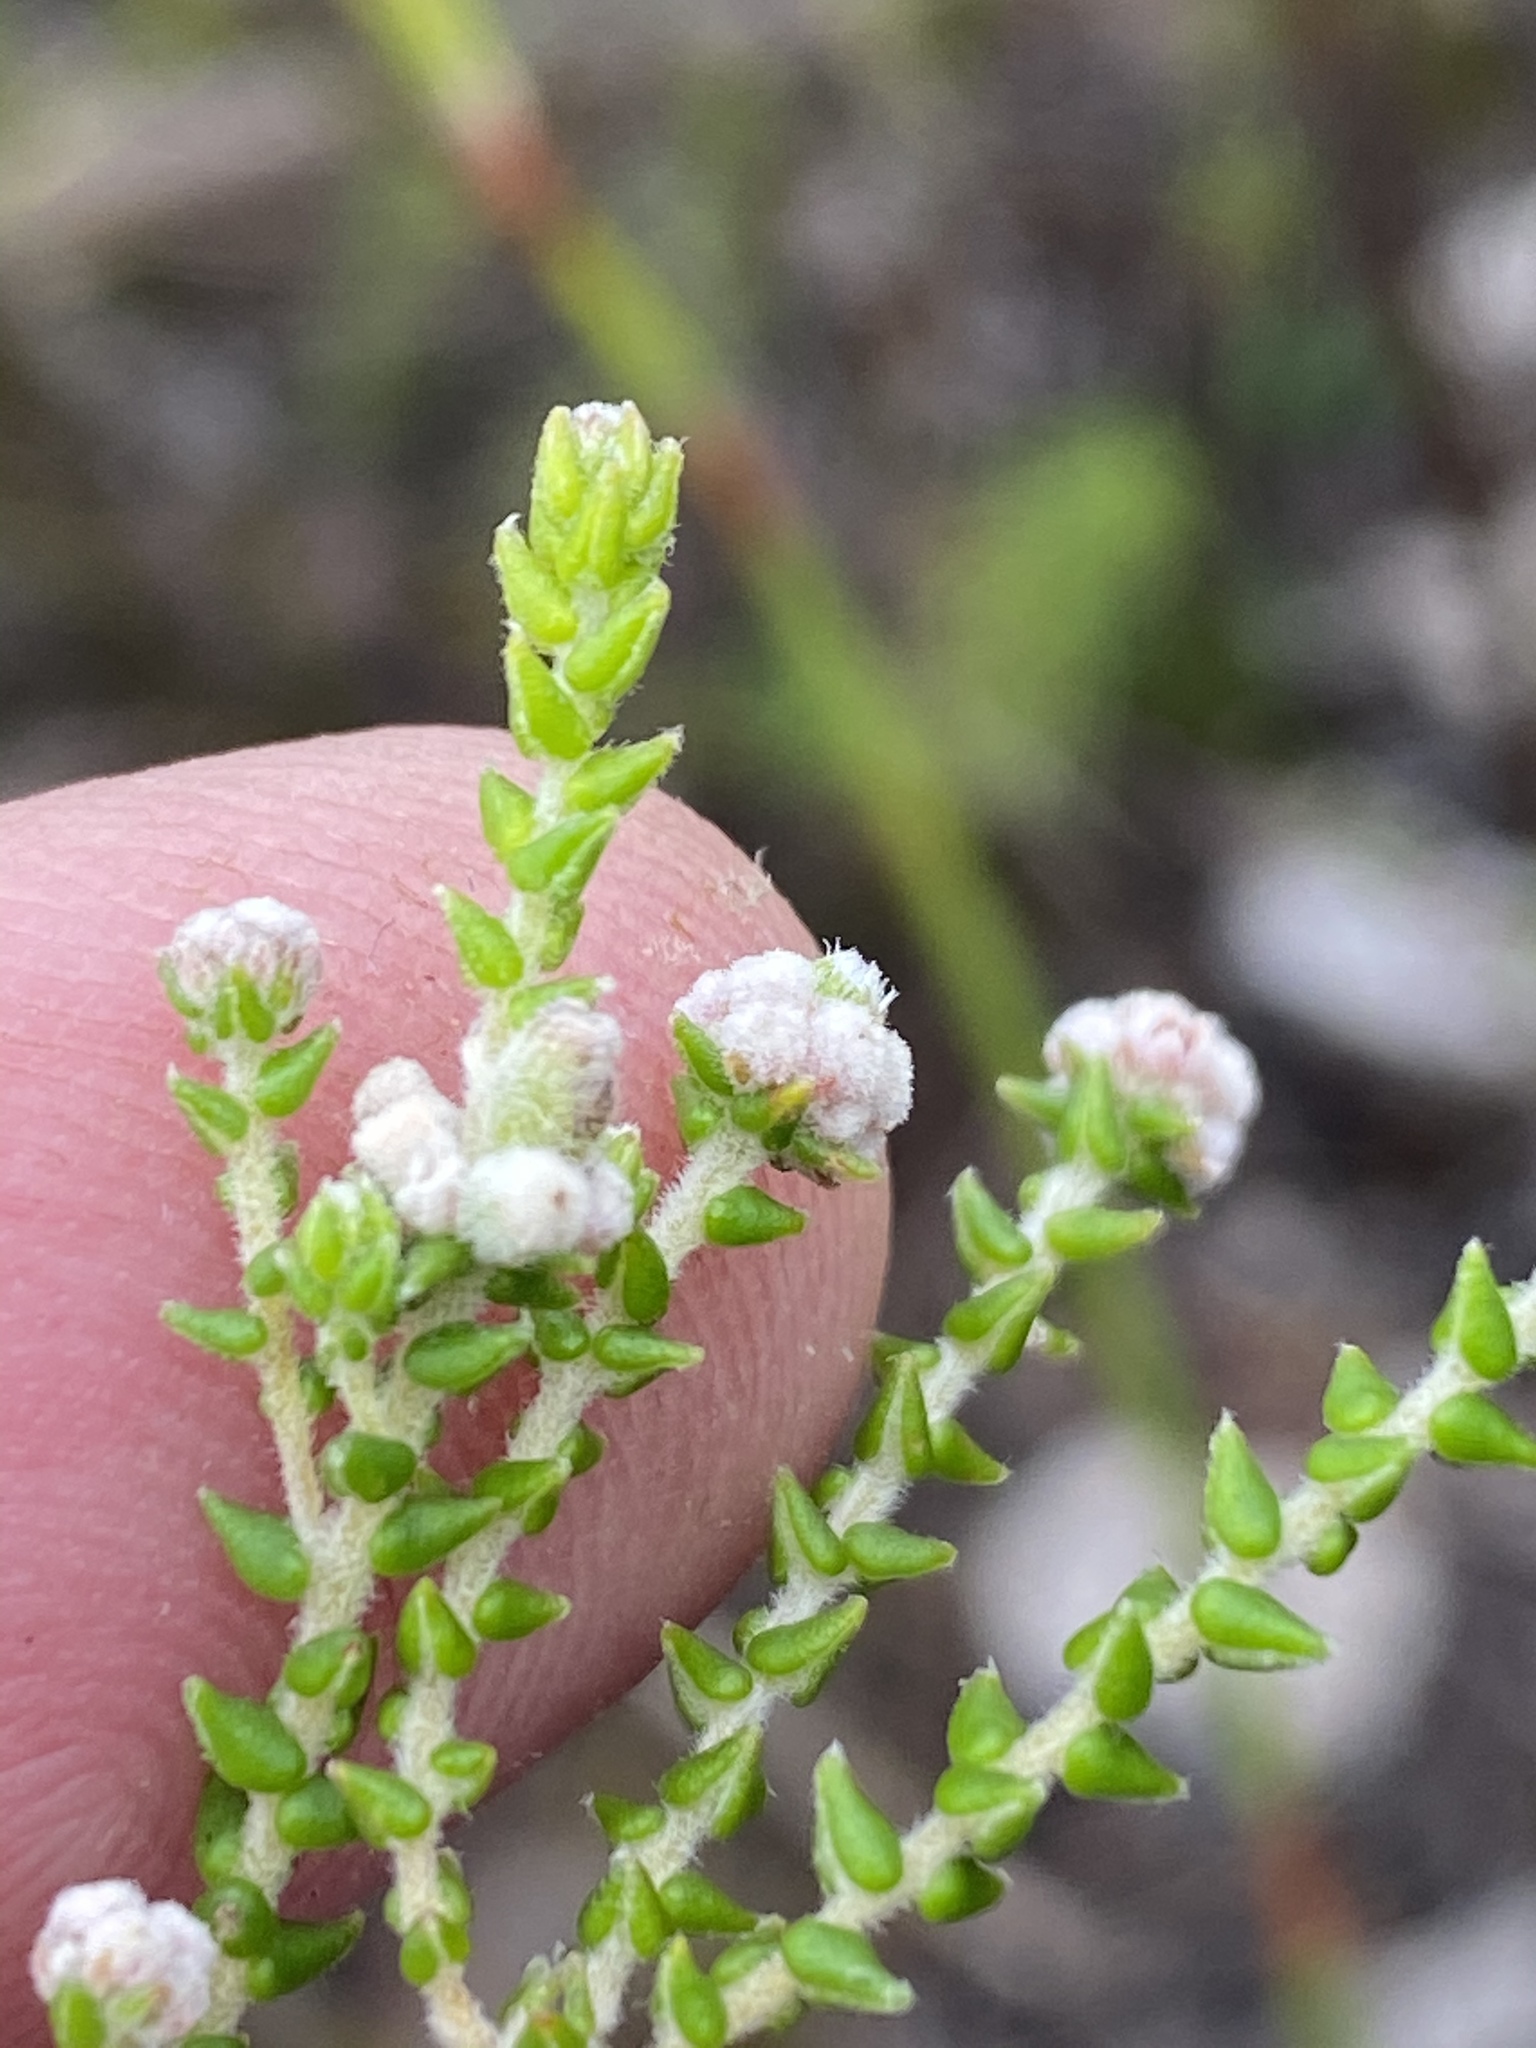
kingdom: Plantae
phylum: Tracheophyta
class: Magnoliopsida
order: Rosales
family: Rhamnaceae
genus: Phylica
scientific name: Phylica humilis
